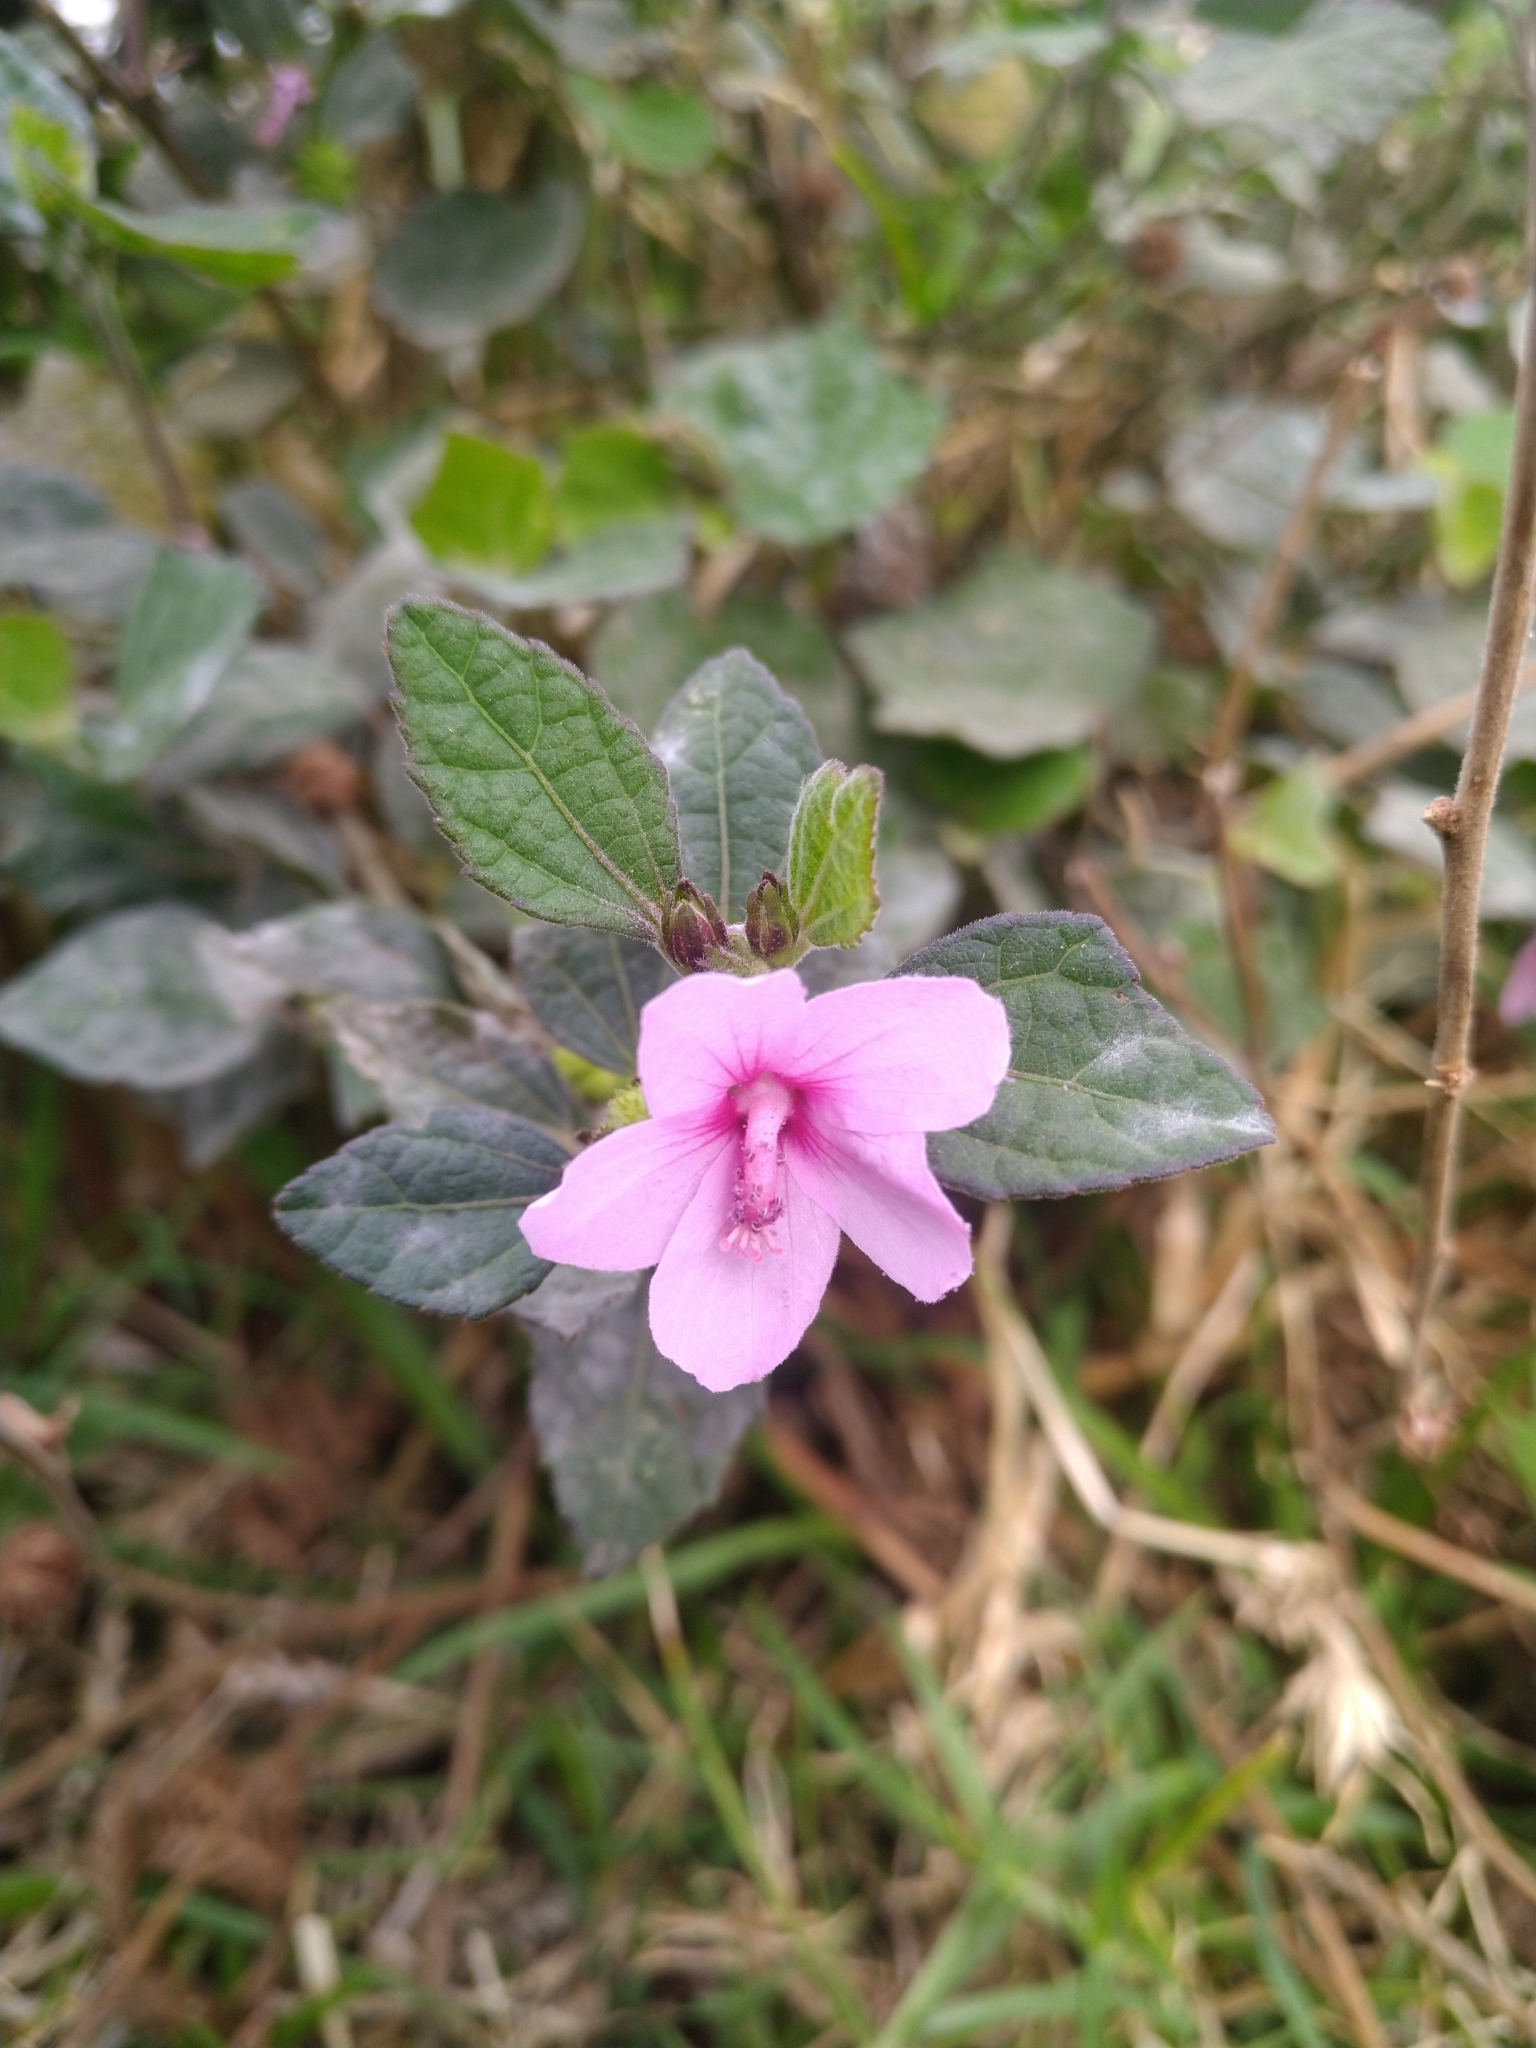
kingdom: Plantae
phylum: Tracheophyta
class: Magnoliopsida
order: Malvales
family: Malvaceae
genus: Urena
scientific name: Urena lobata
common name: Caesarweed
